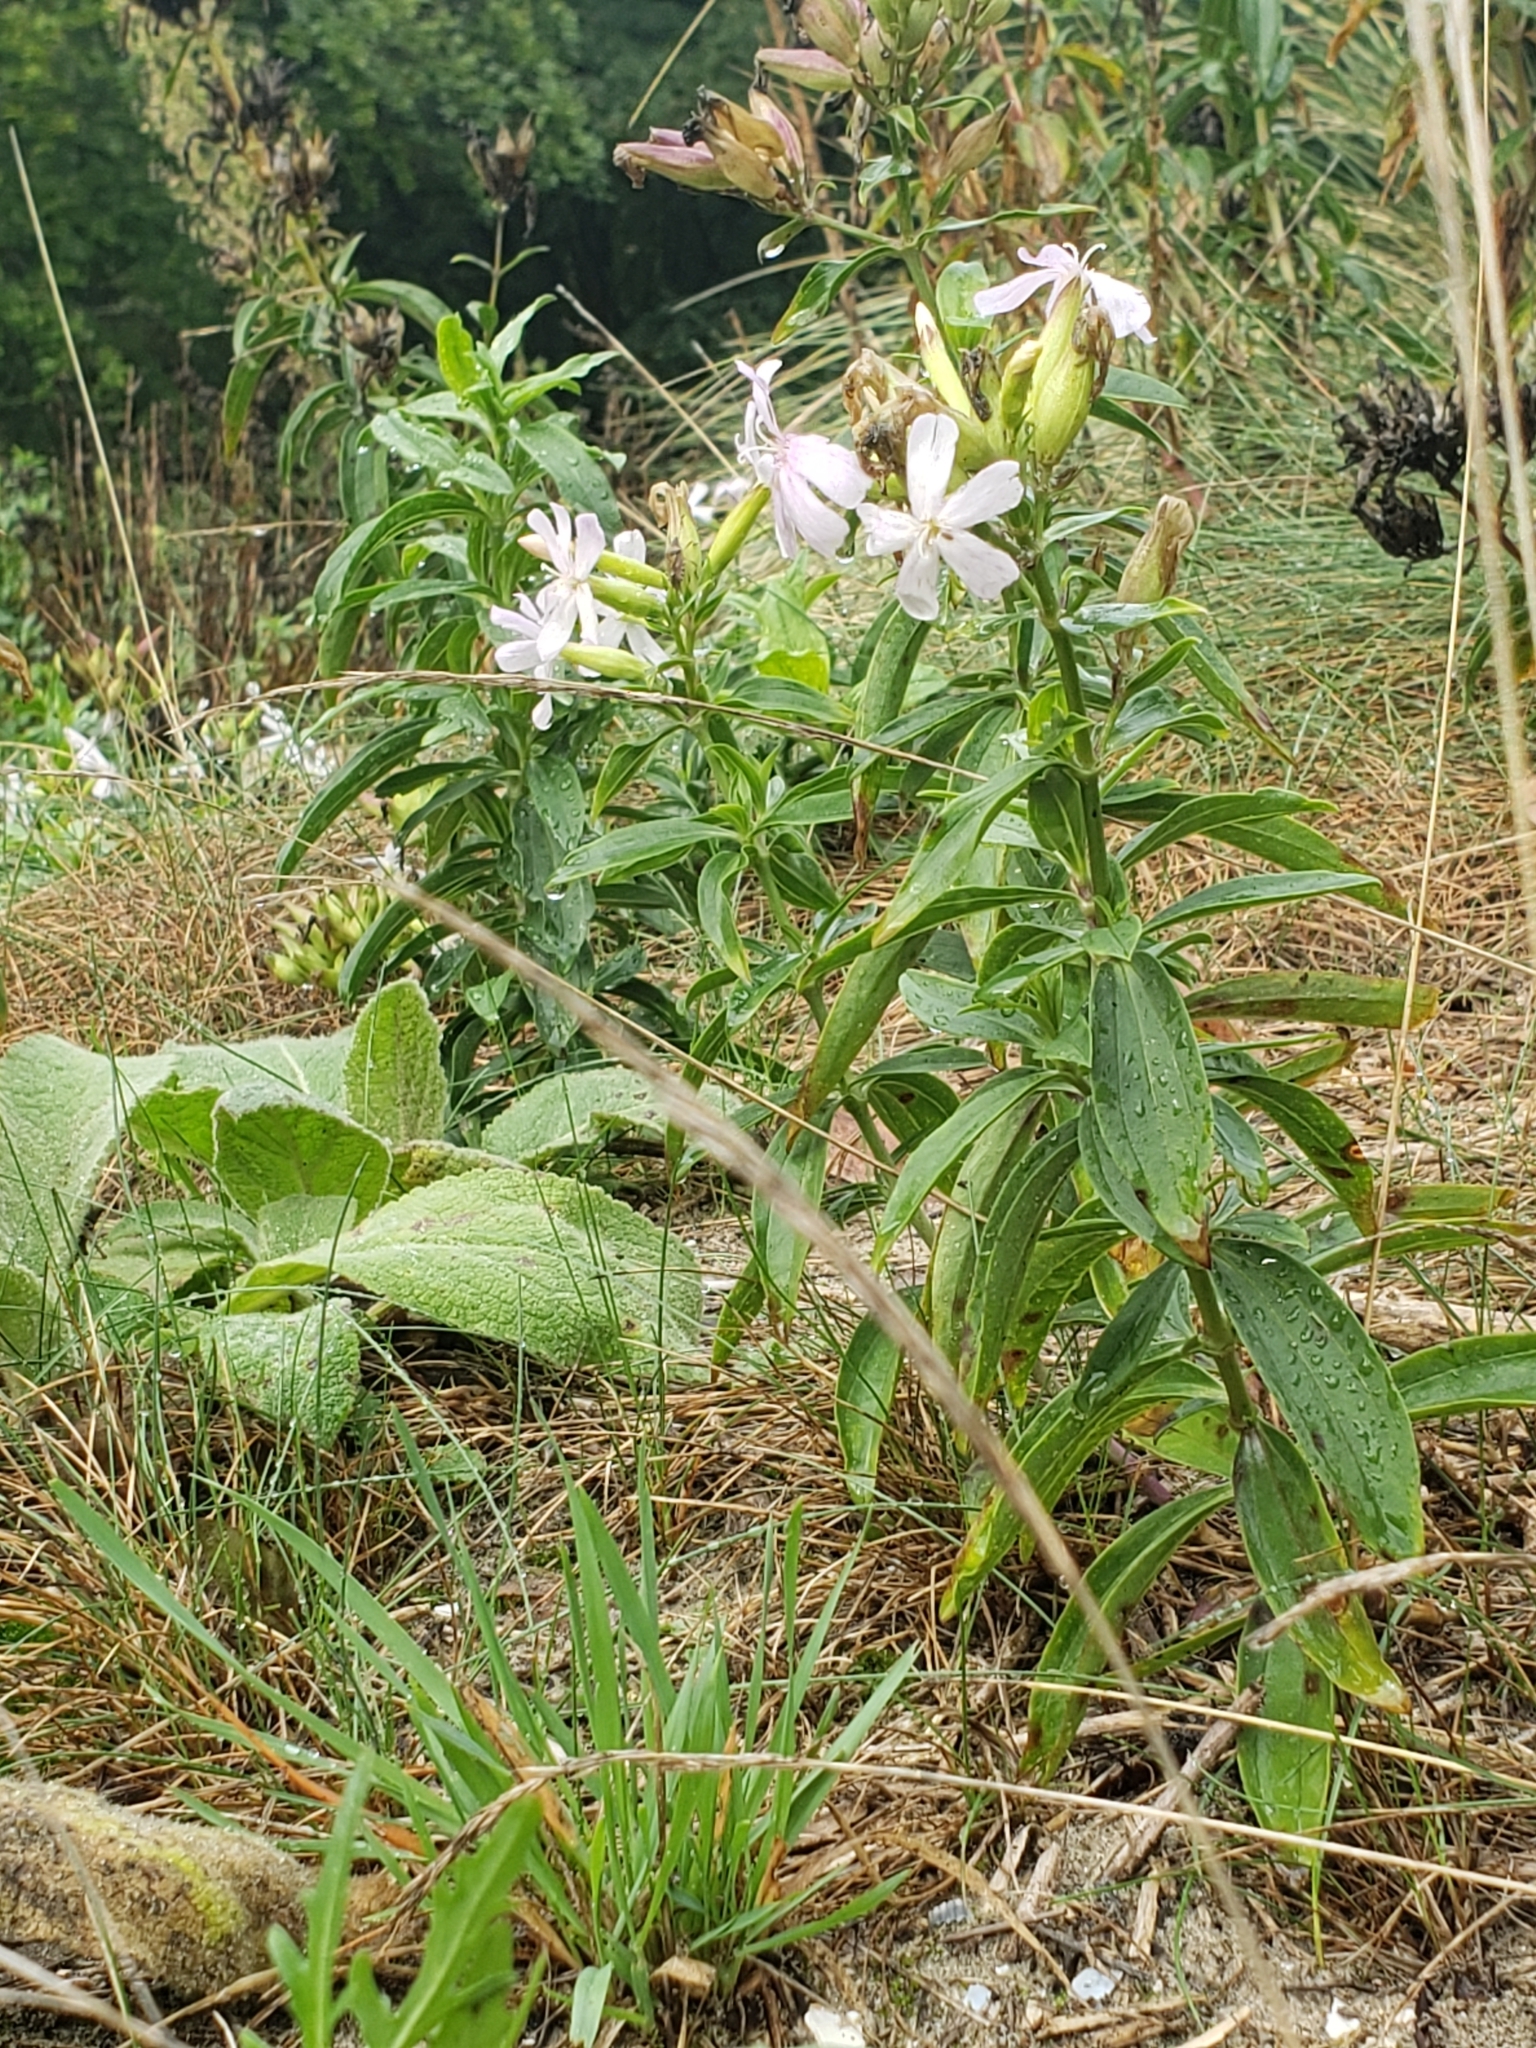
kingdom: Plantae
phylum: Tracheophyta
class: Magnoliopsida
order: Caryophyllales
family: Caryophyllaceae
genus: Saponaria
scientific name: Saponaria officinalis
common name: Soapwort
